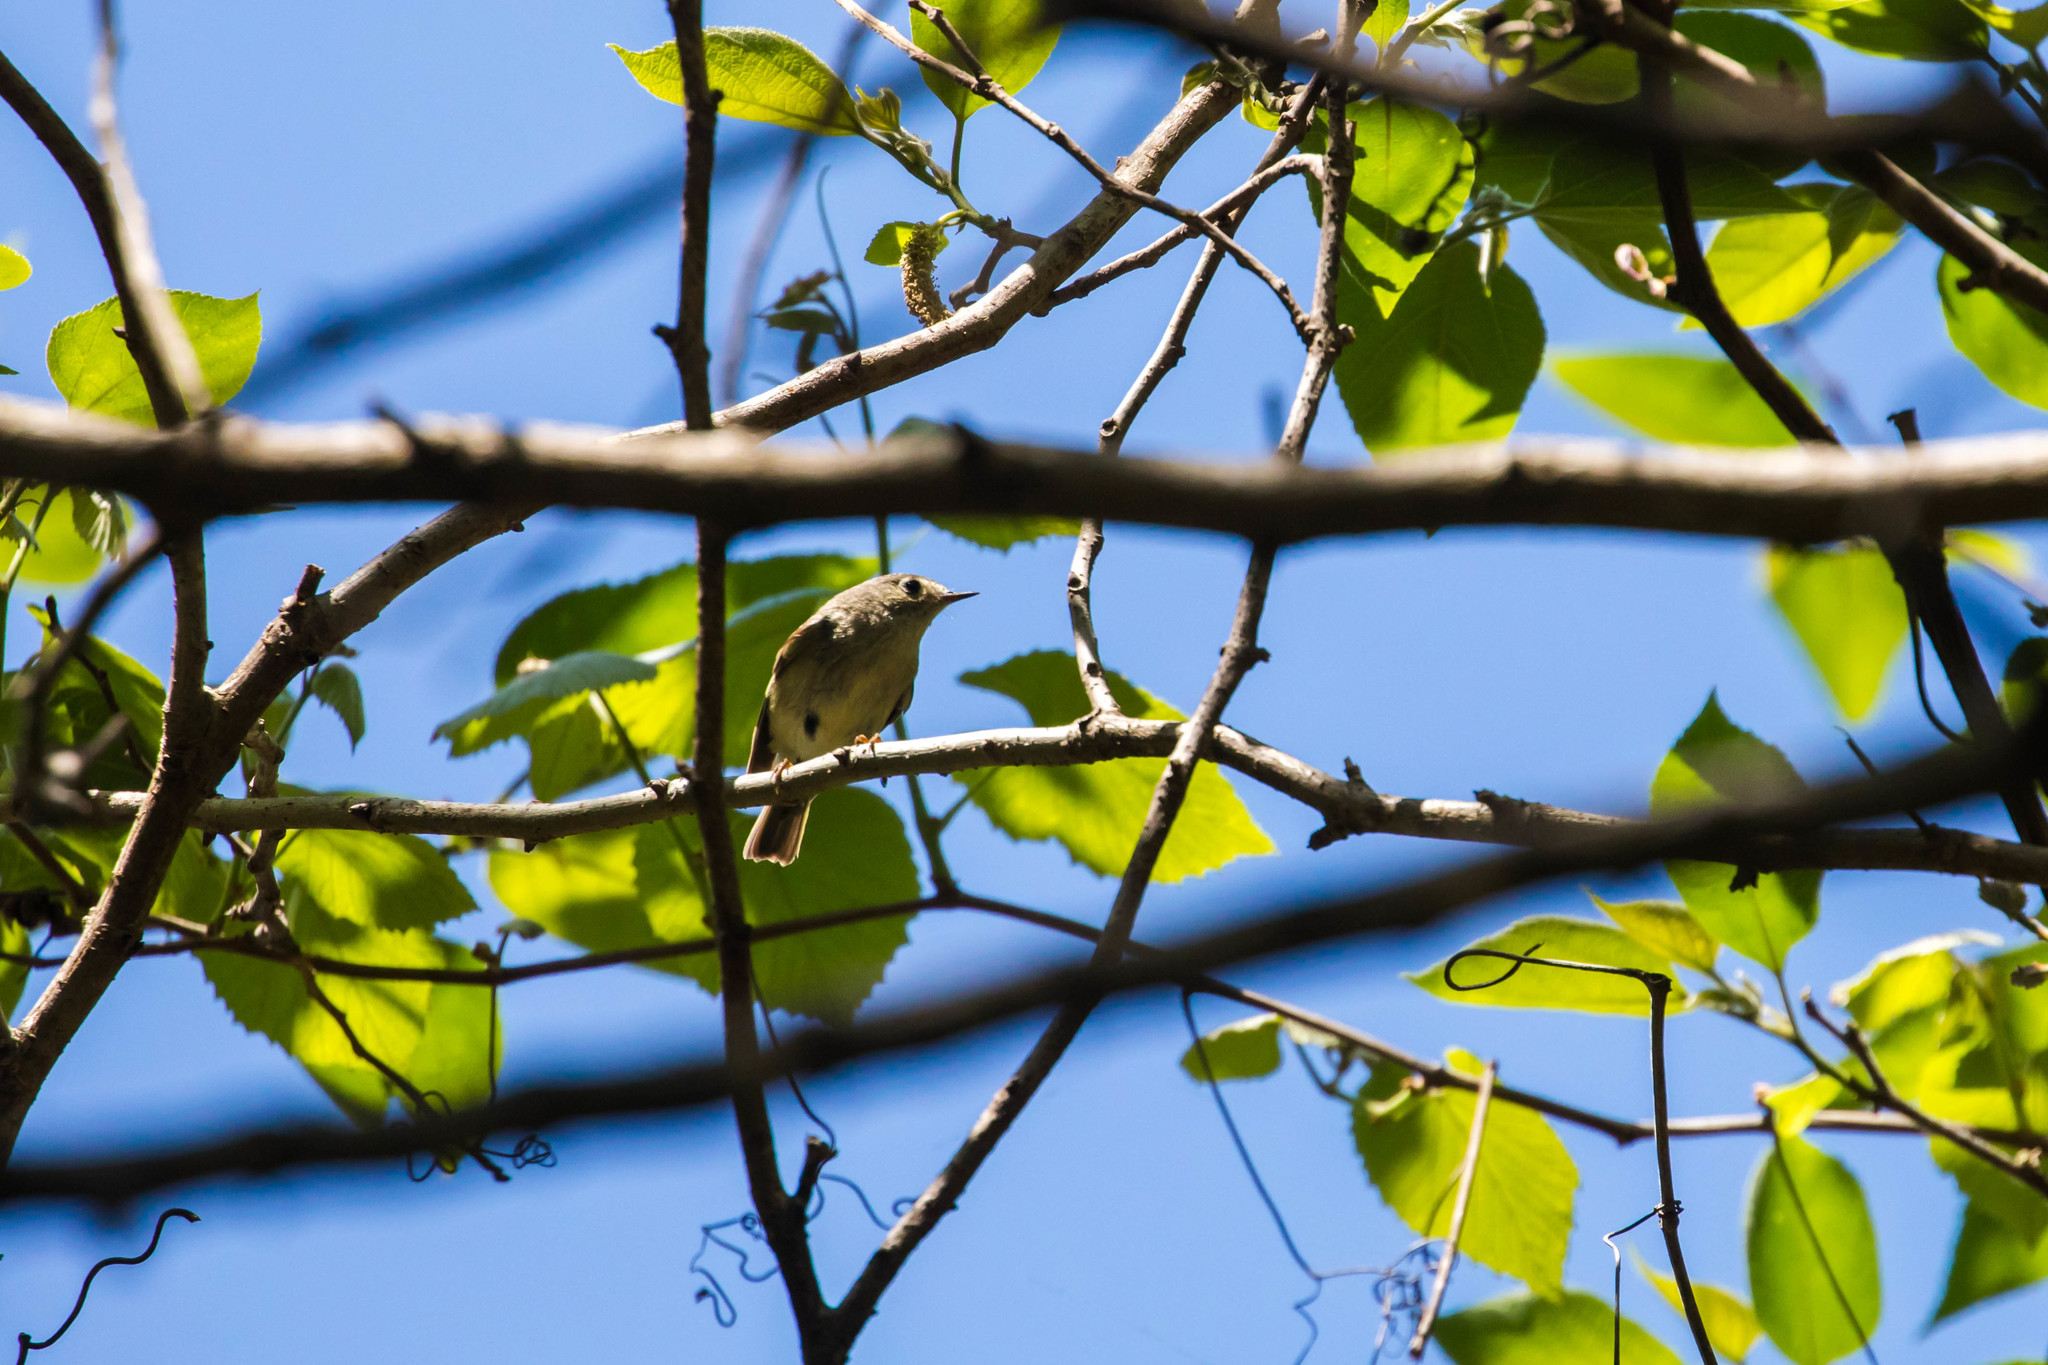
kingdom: Animalia
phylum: Chordata
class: Aves
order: Passeriformes
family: Regulidae
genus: Regulus
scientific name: Regulus calendula
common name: Ruby-crowned kinglet
